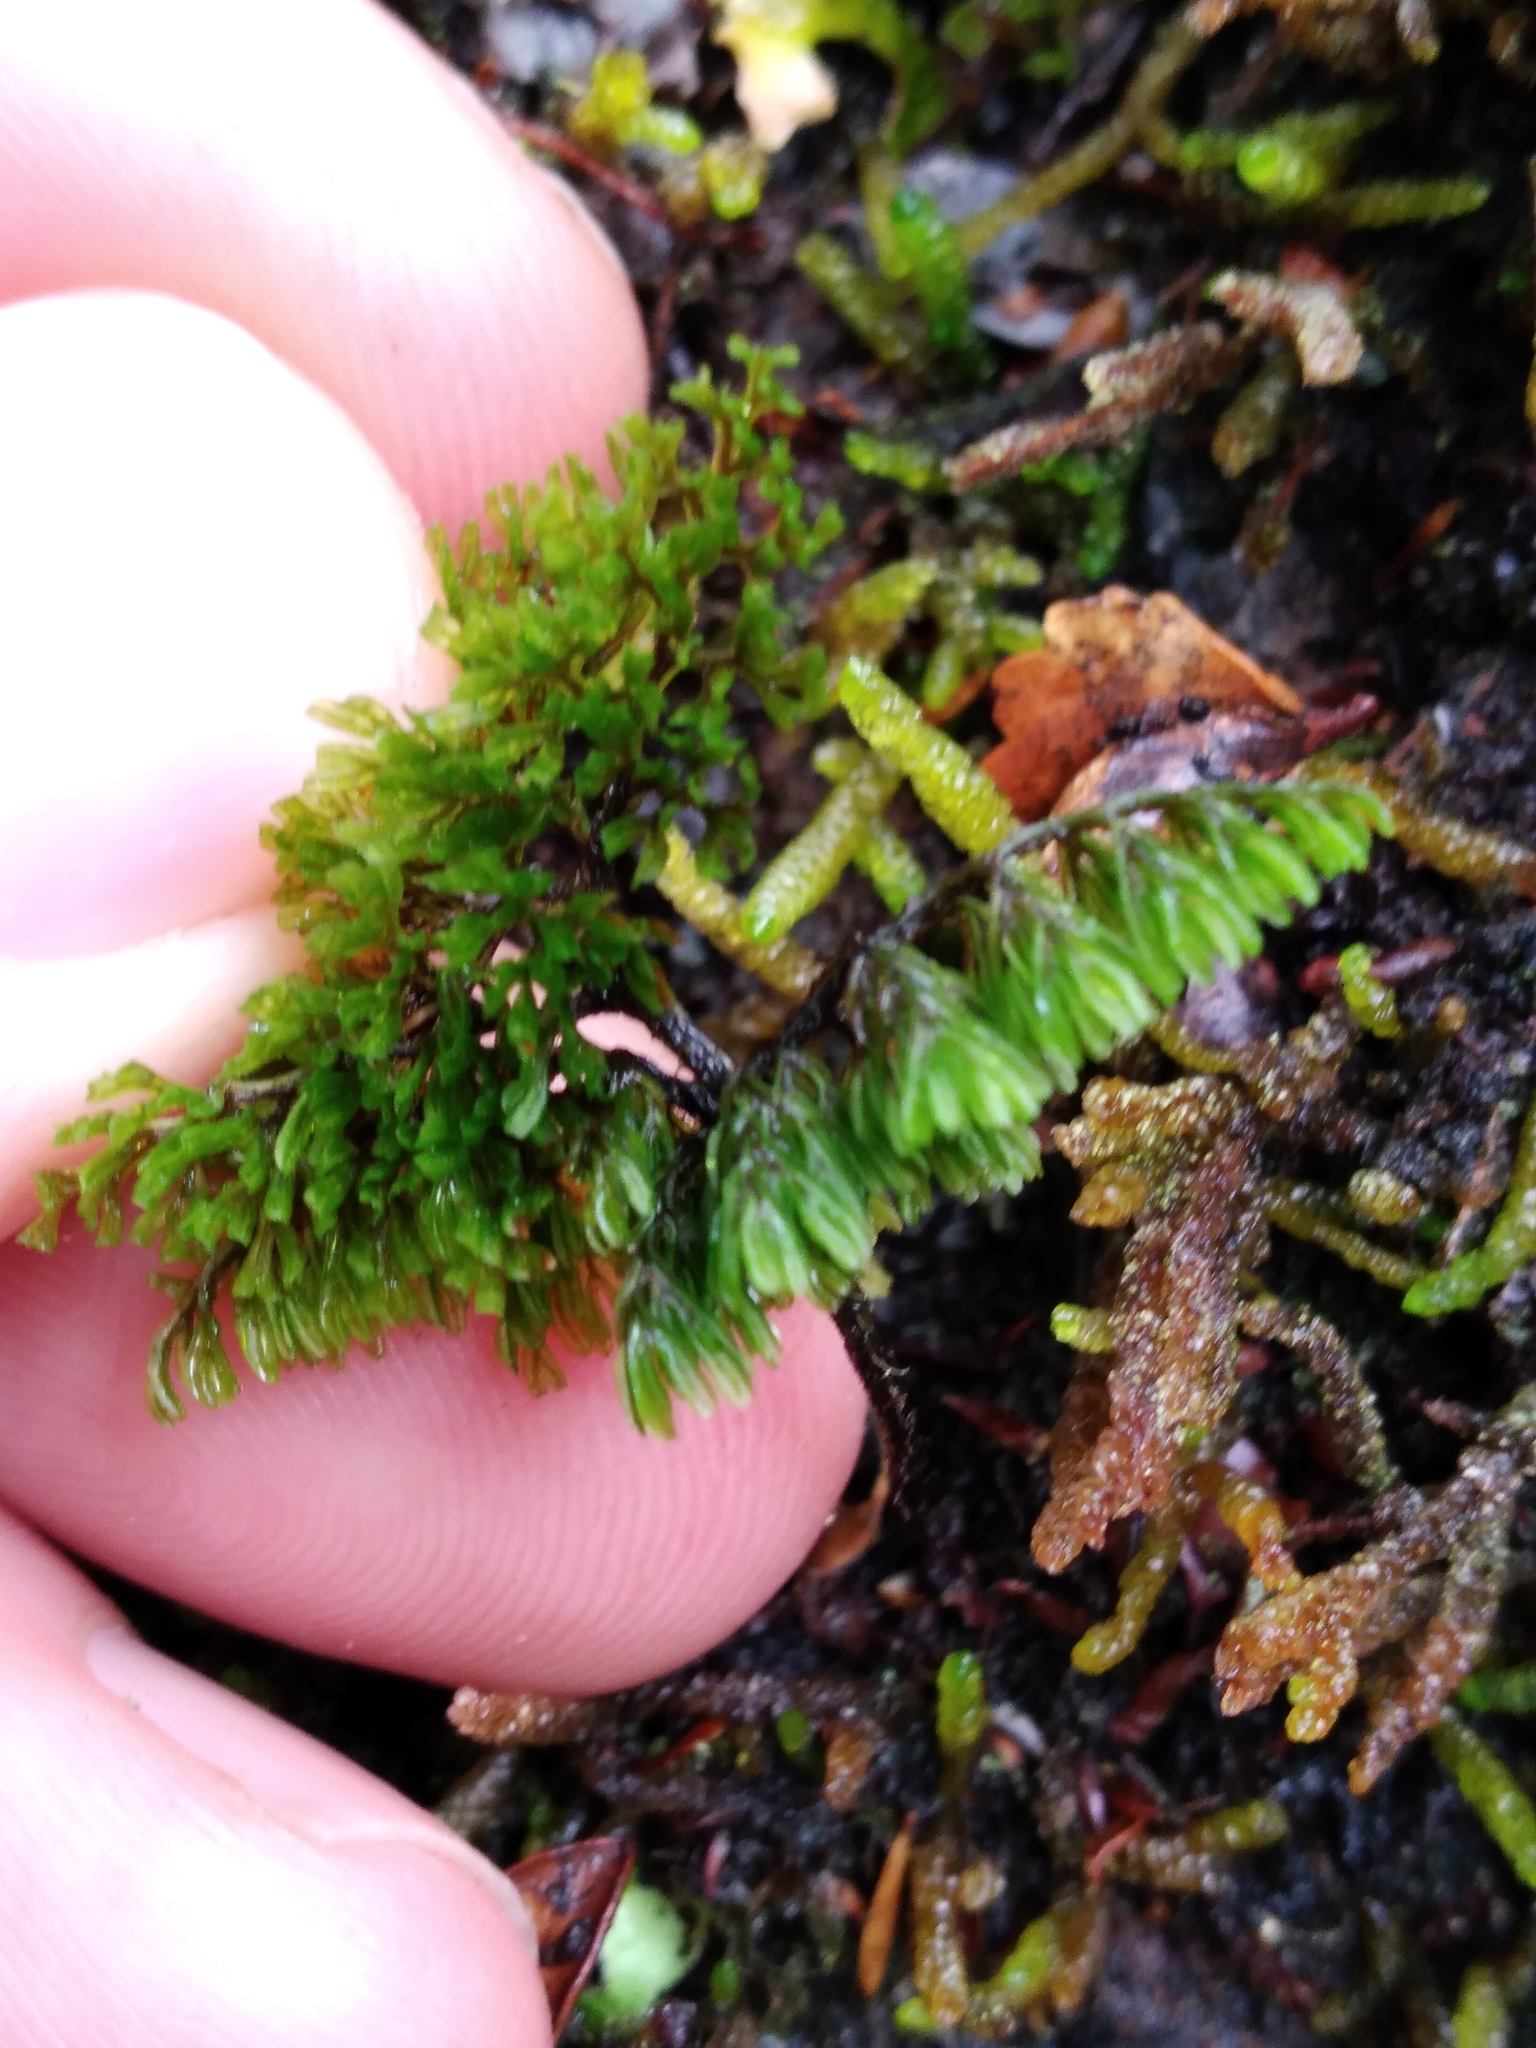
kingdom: Plantae
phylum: Tracheophyta
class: Polypodiopsida
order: Hymenophyllales
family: Hymenophyllaceae
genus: Hymenophyllum
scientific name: Hymenophyllum villosum
